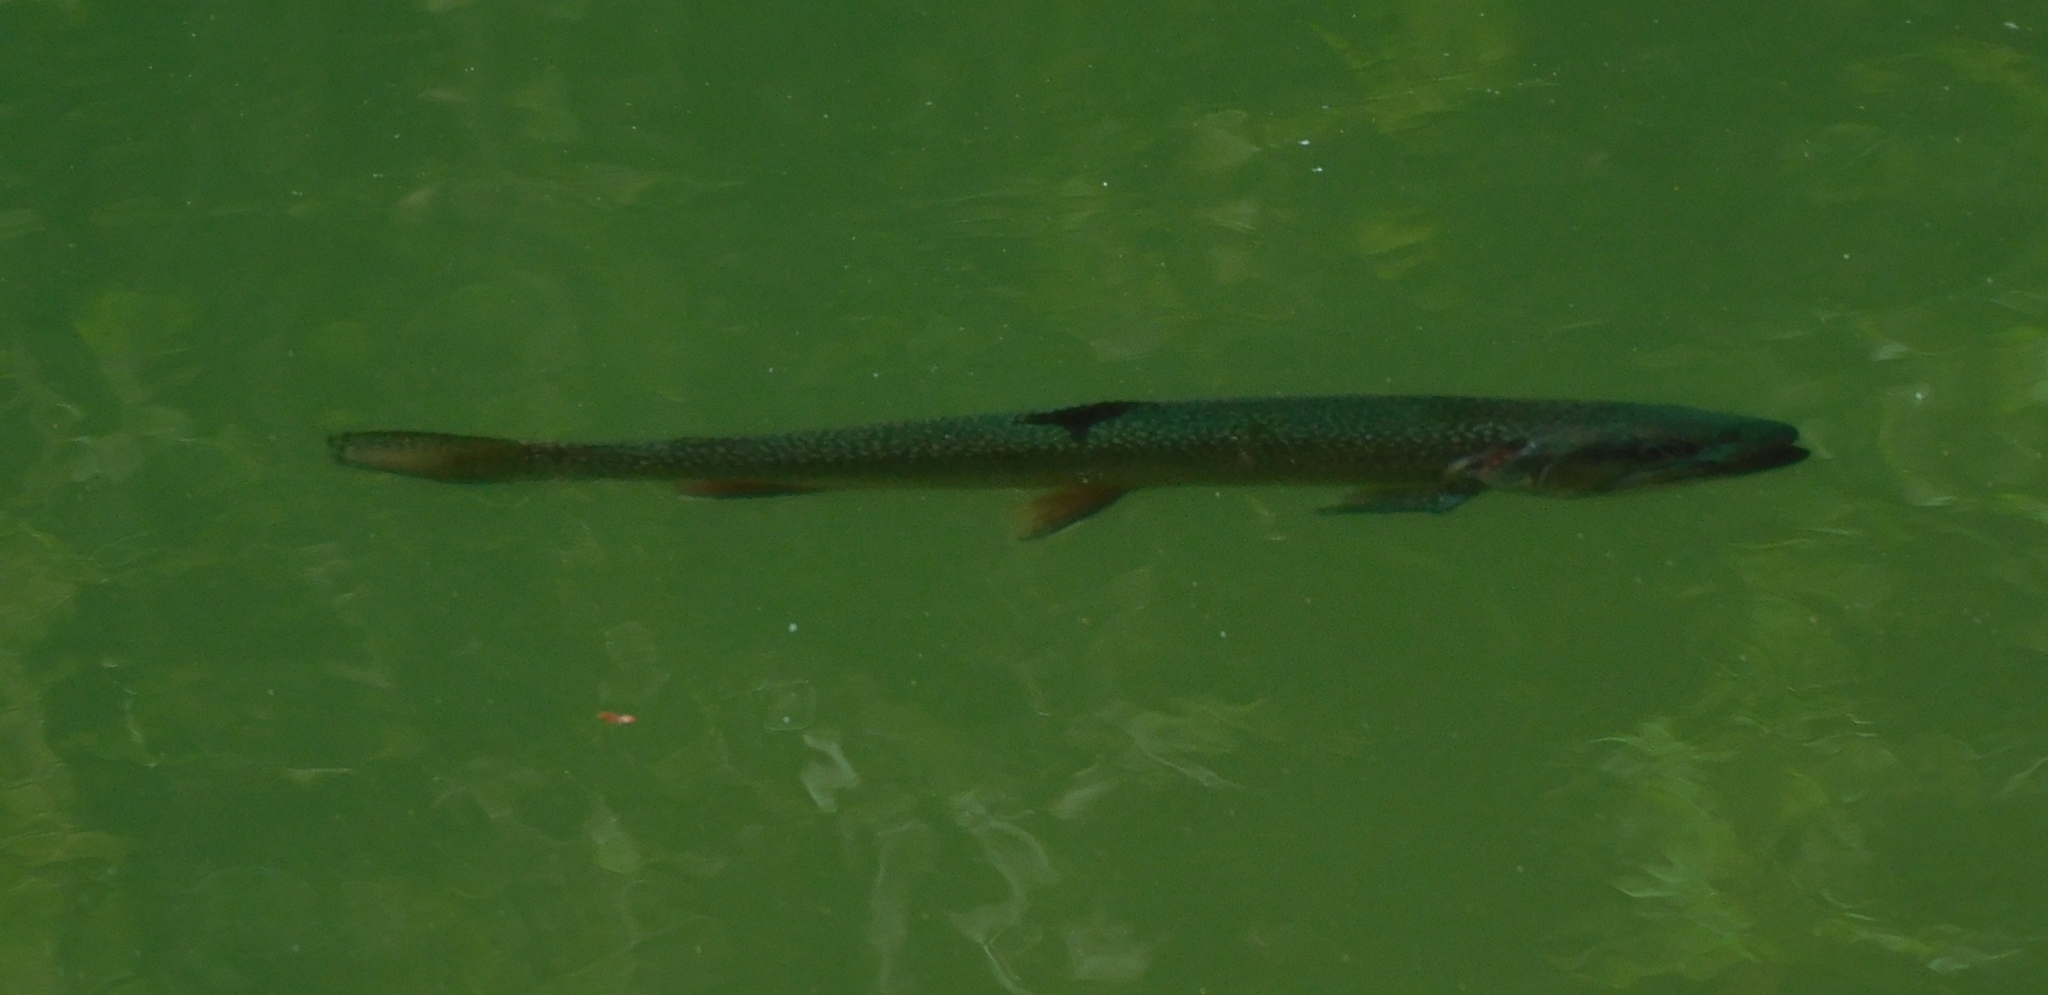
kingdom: Animalia
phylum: Chordata
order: Salmoniformes
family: Salmonidae
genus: Salvelinus
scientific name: Salvelinus fontinalis
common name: Brook trout
